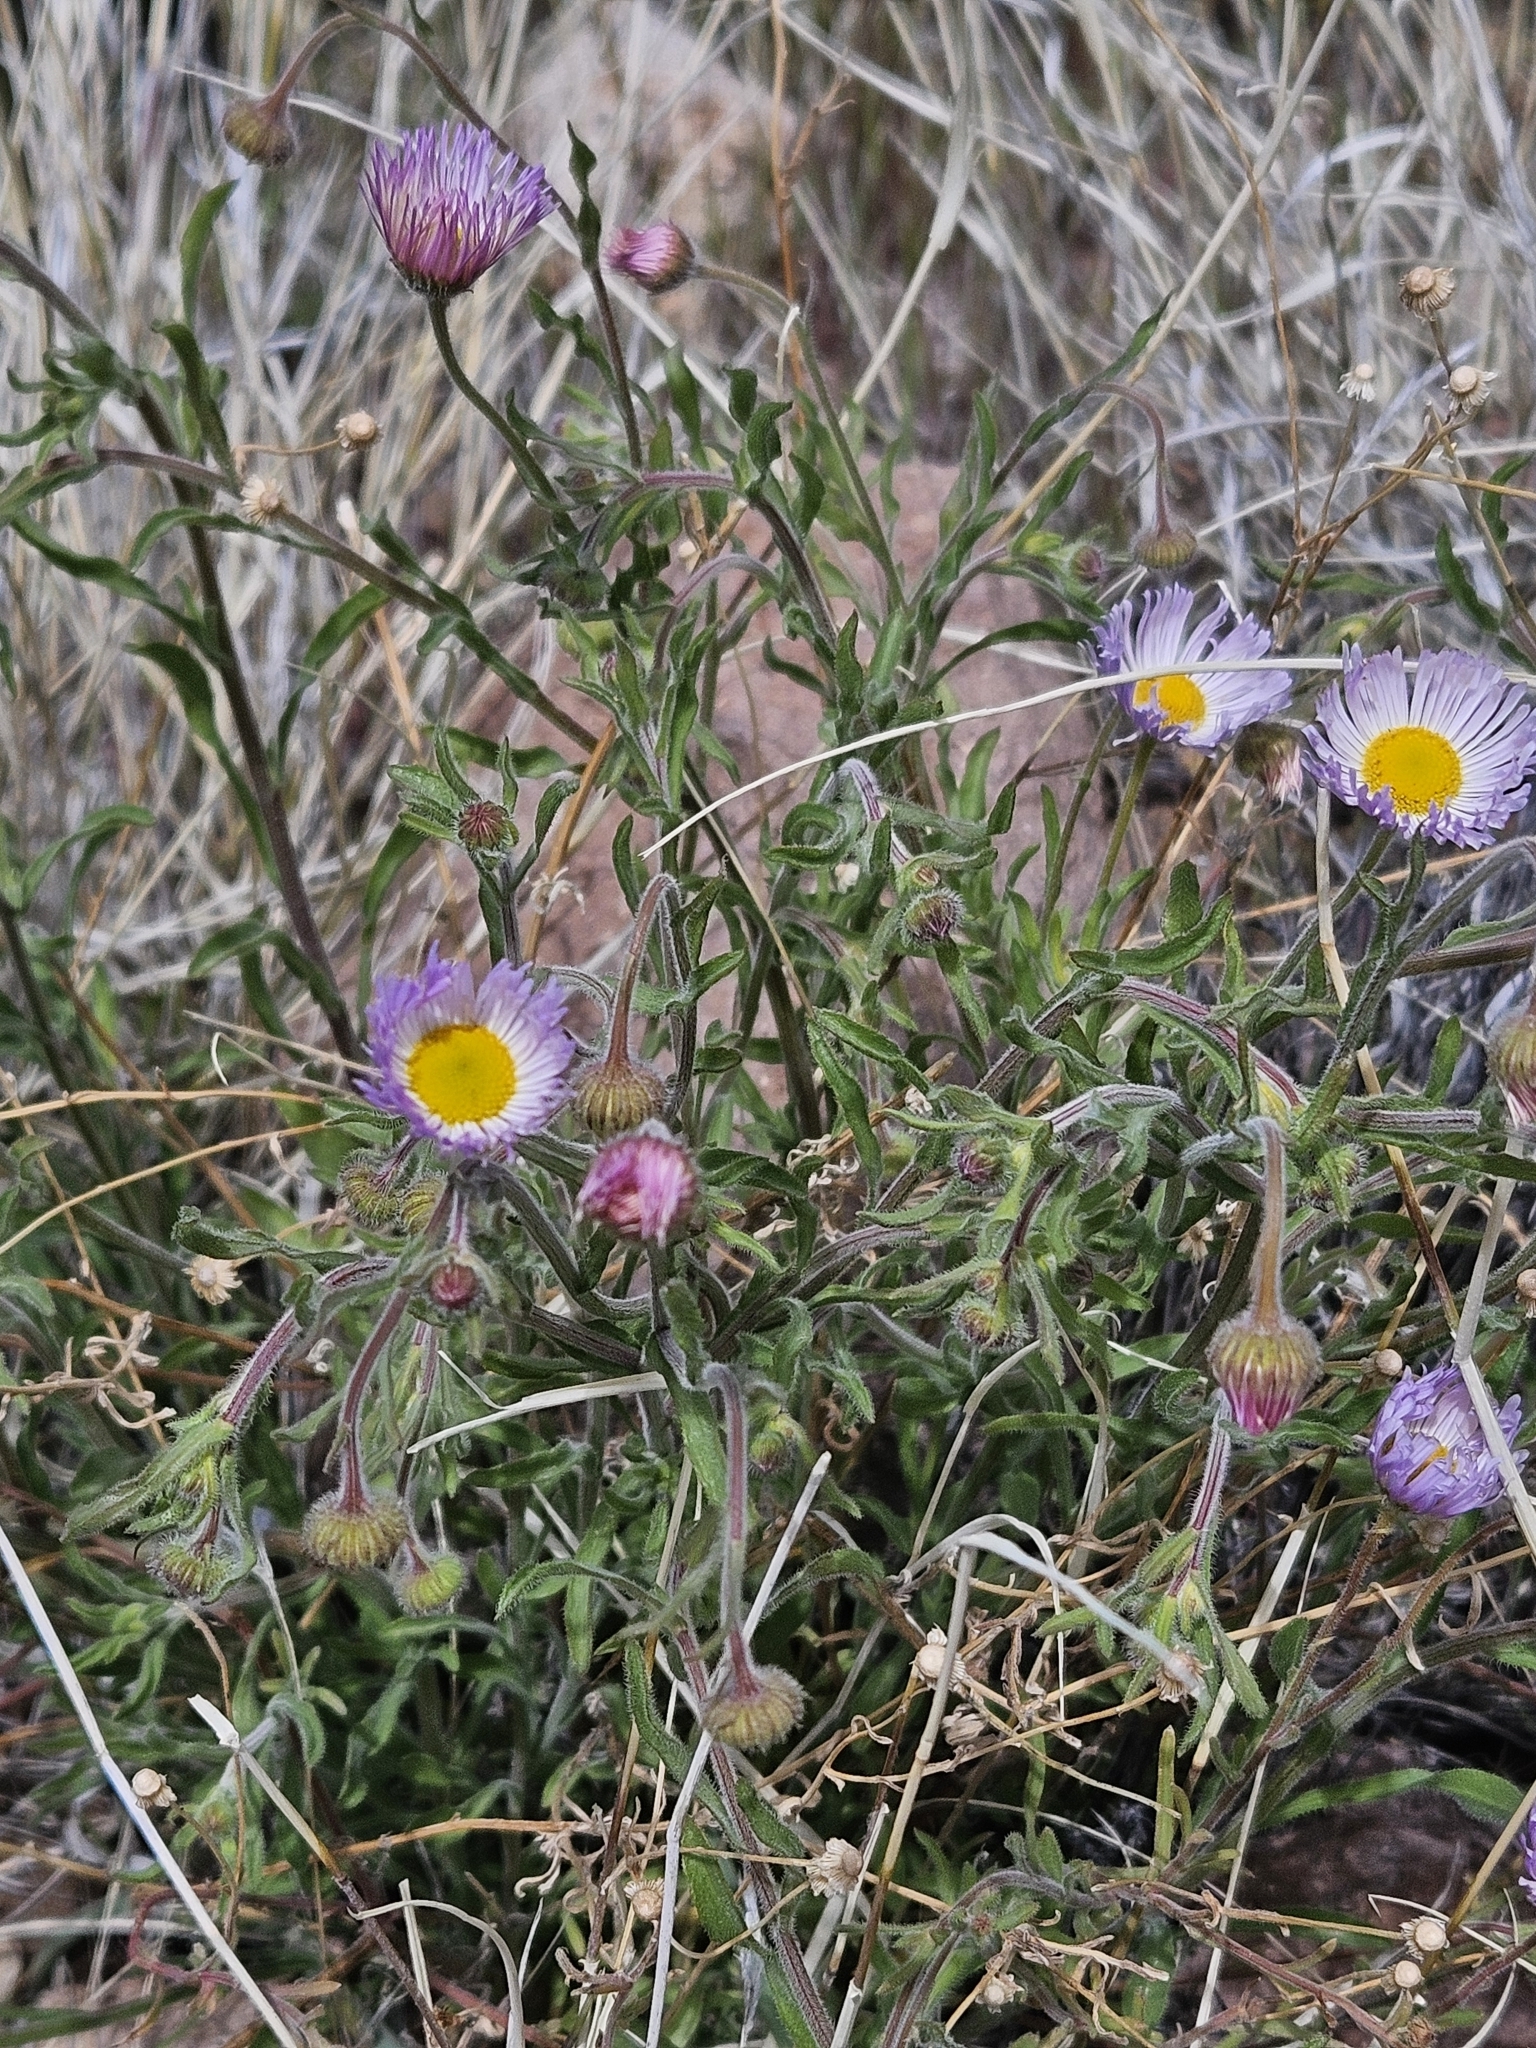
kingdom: Plantae
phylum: Tracheophyta
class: Magnoliopsida
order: Asterales
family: Asteraceae
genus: Erigeron
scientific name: Erigeron divergens
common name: Diffuse fleabane
